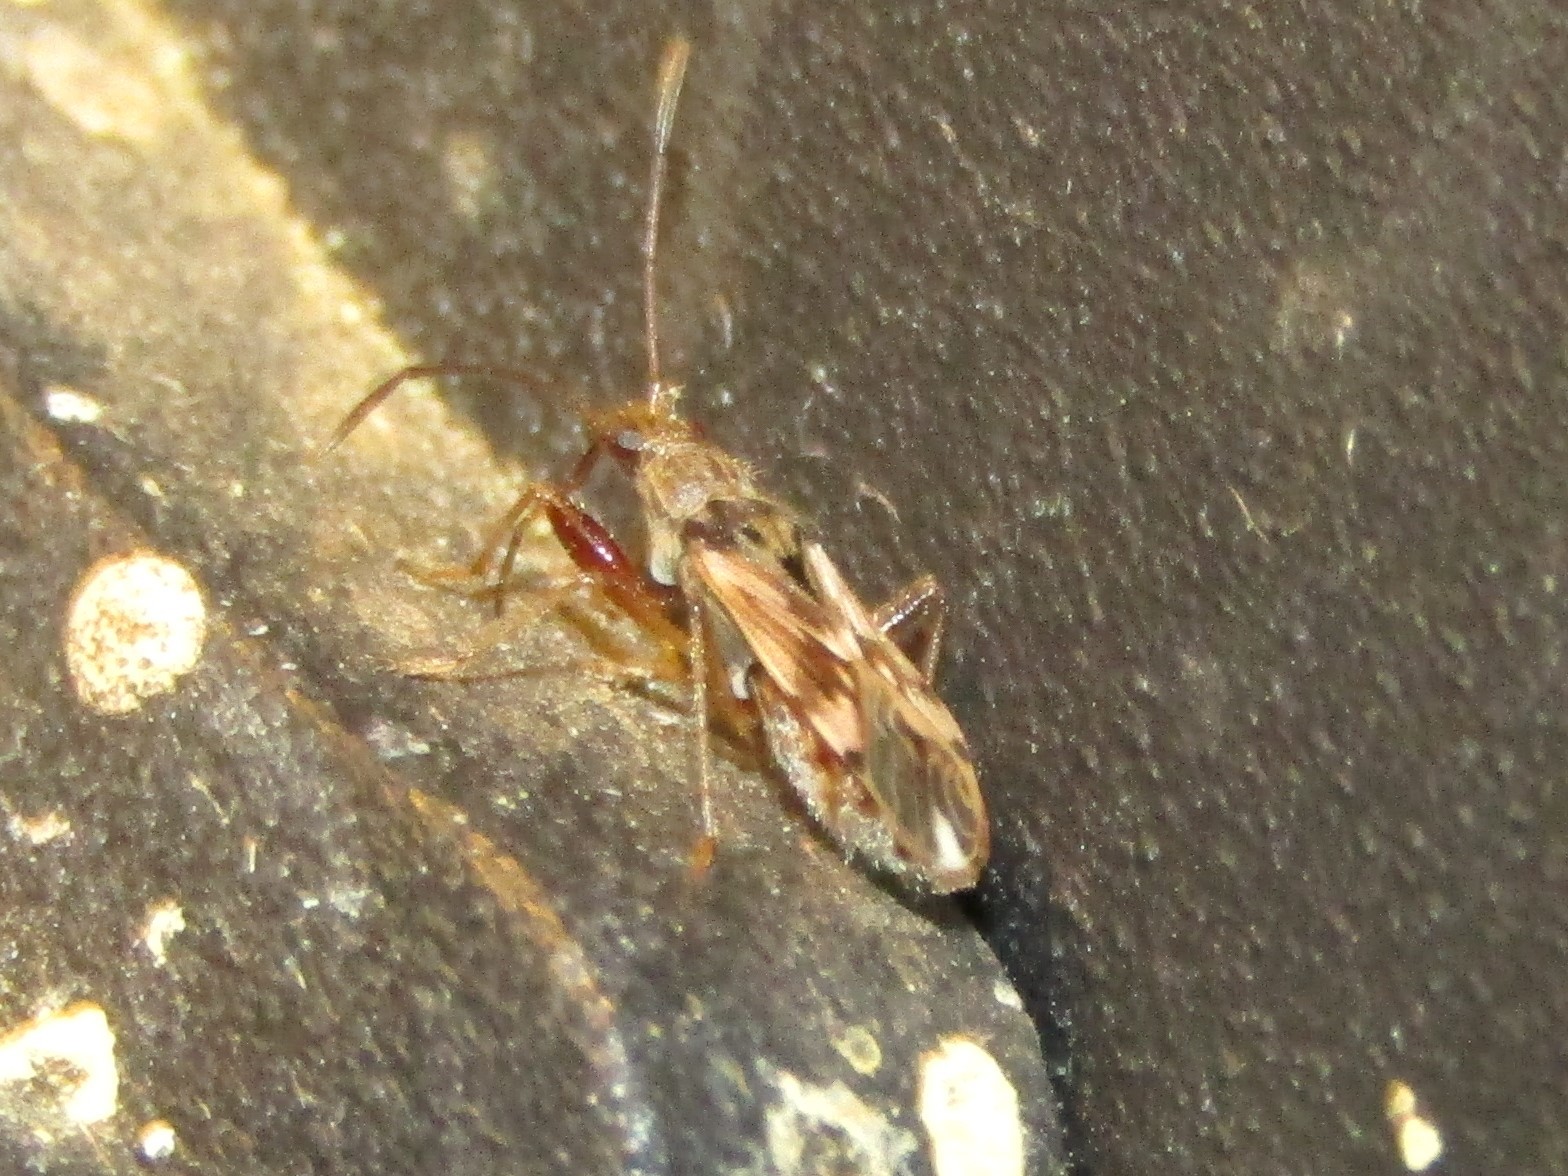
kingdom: Animalia
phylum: Arthropoda
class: Insecta
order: Hemiptera
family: Rhyparochromidae
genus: Neopamera
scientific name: Neopamera bilobata
